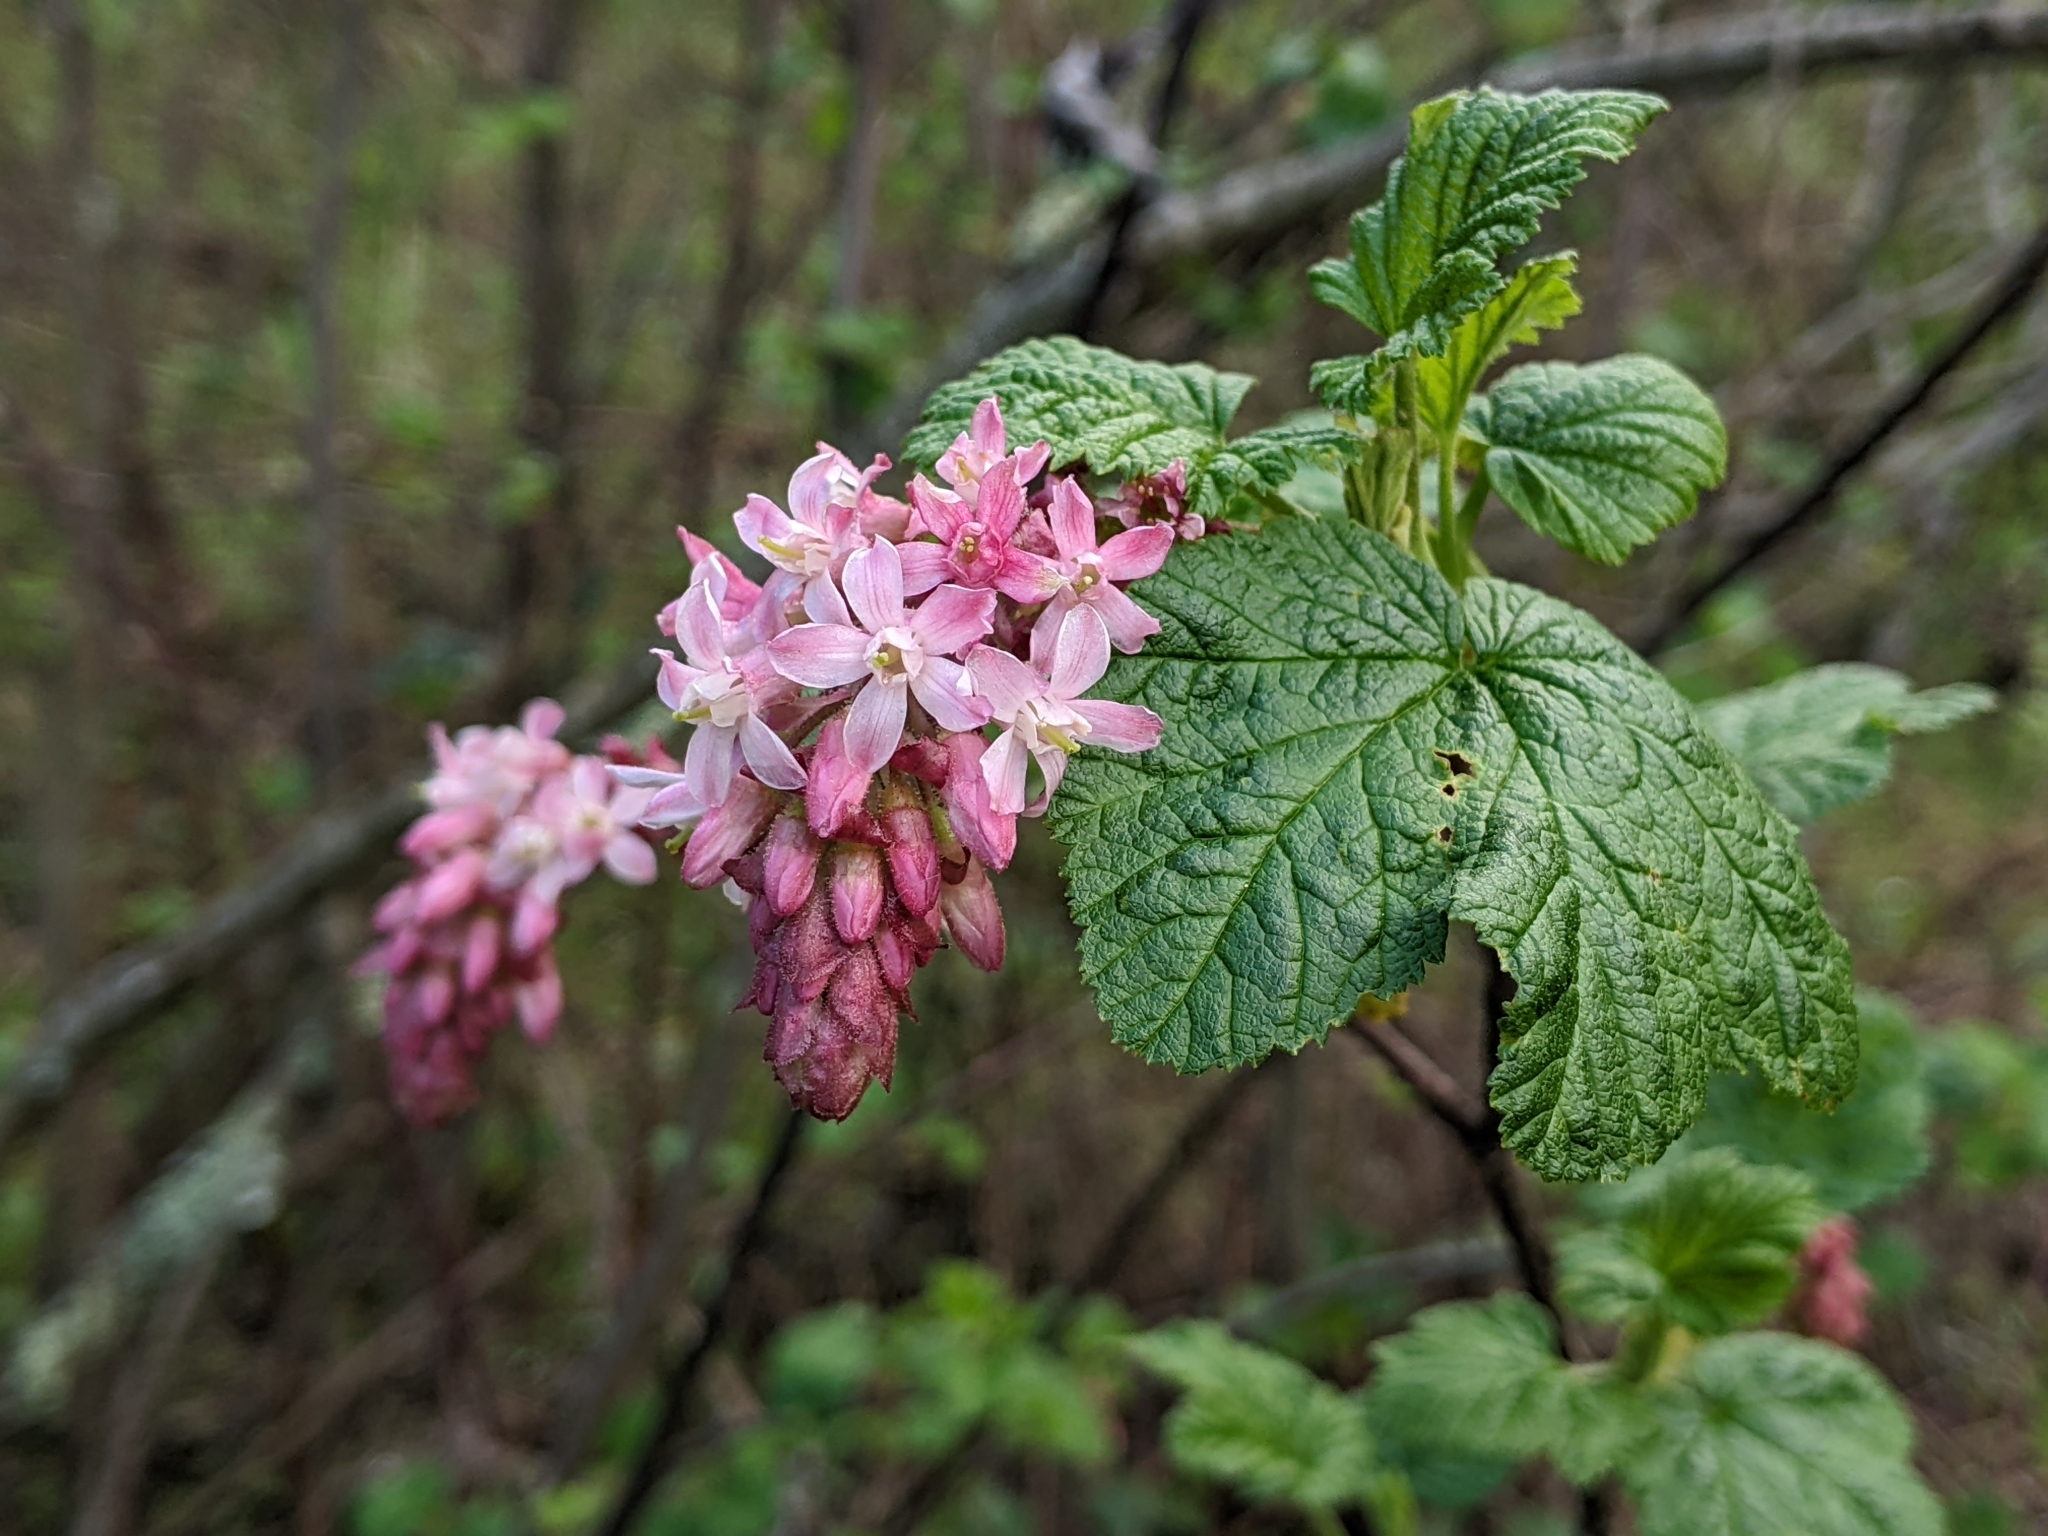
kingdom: Plantae
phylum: Tracheophyta
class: Magnoliopsida
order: Saxifragales
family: Grossulariaceae
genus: Ribes
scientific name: Ribes sanguineum
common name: Flowering currant
